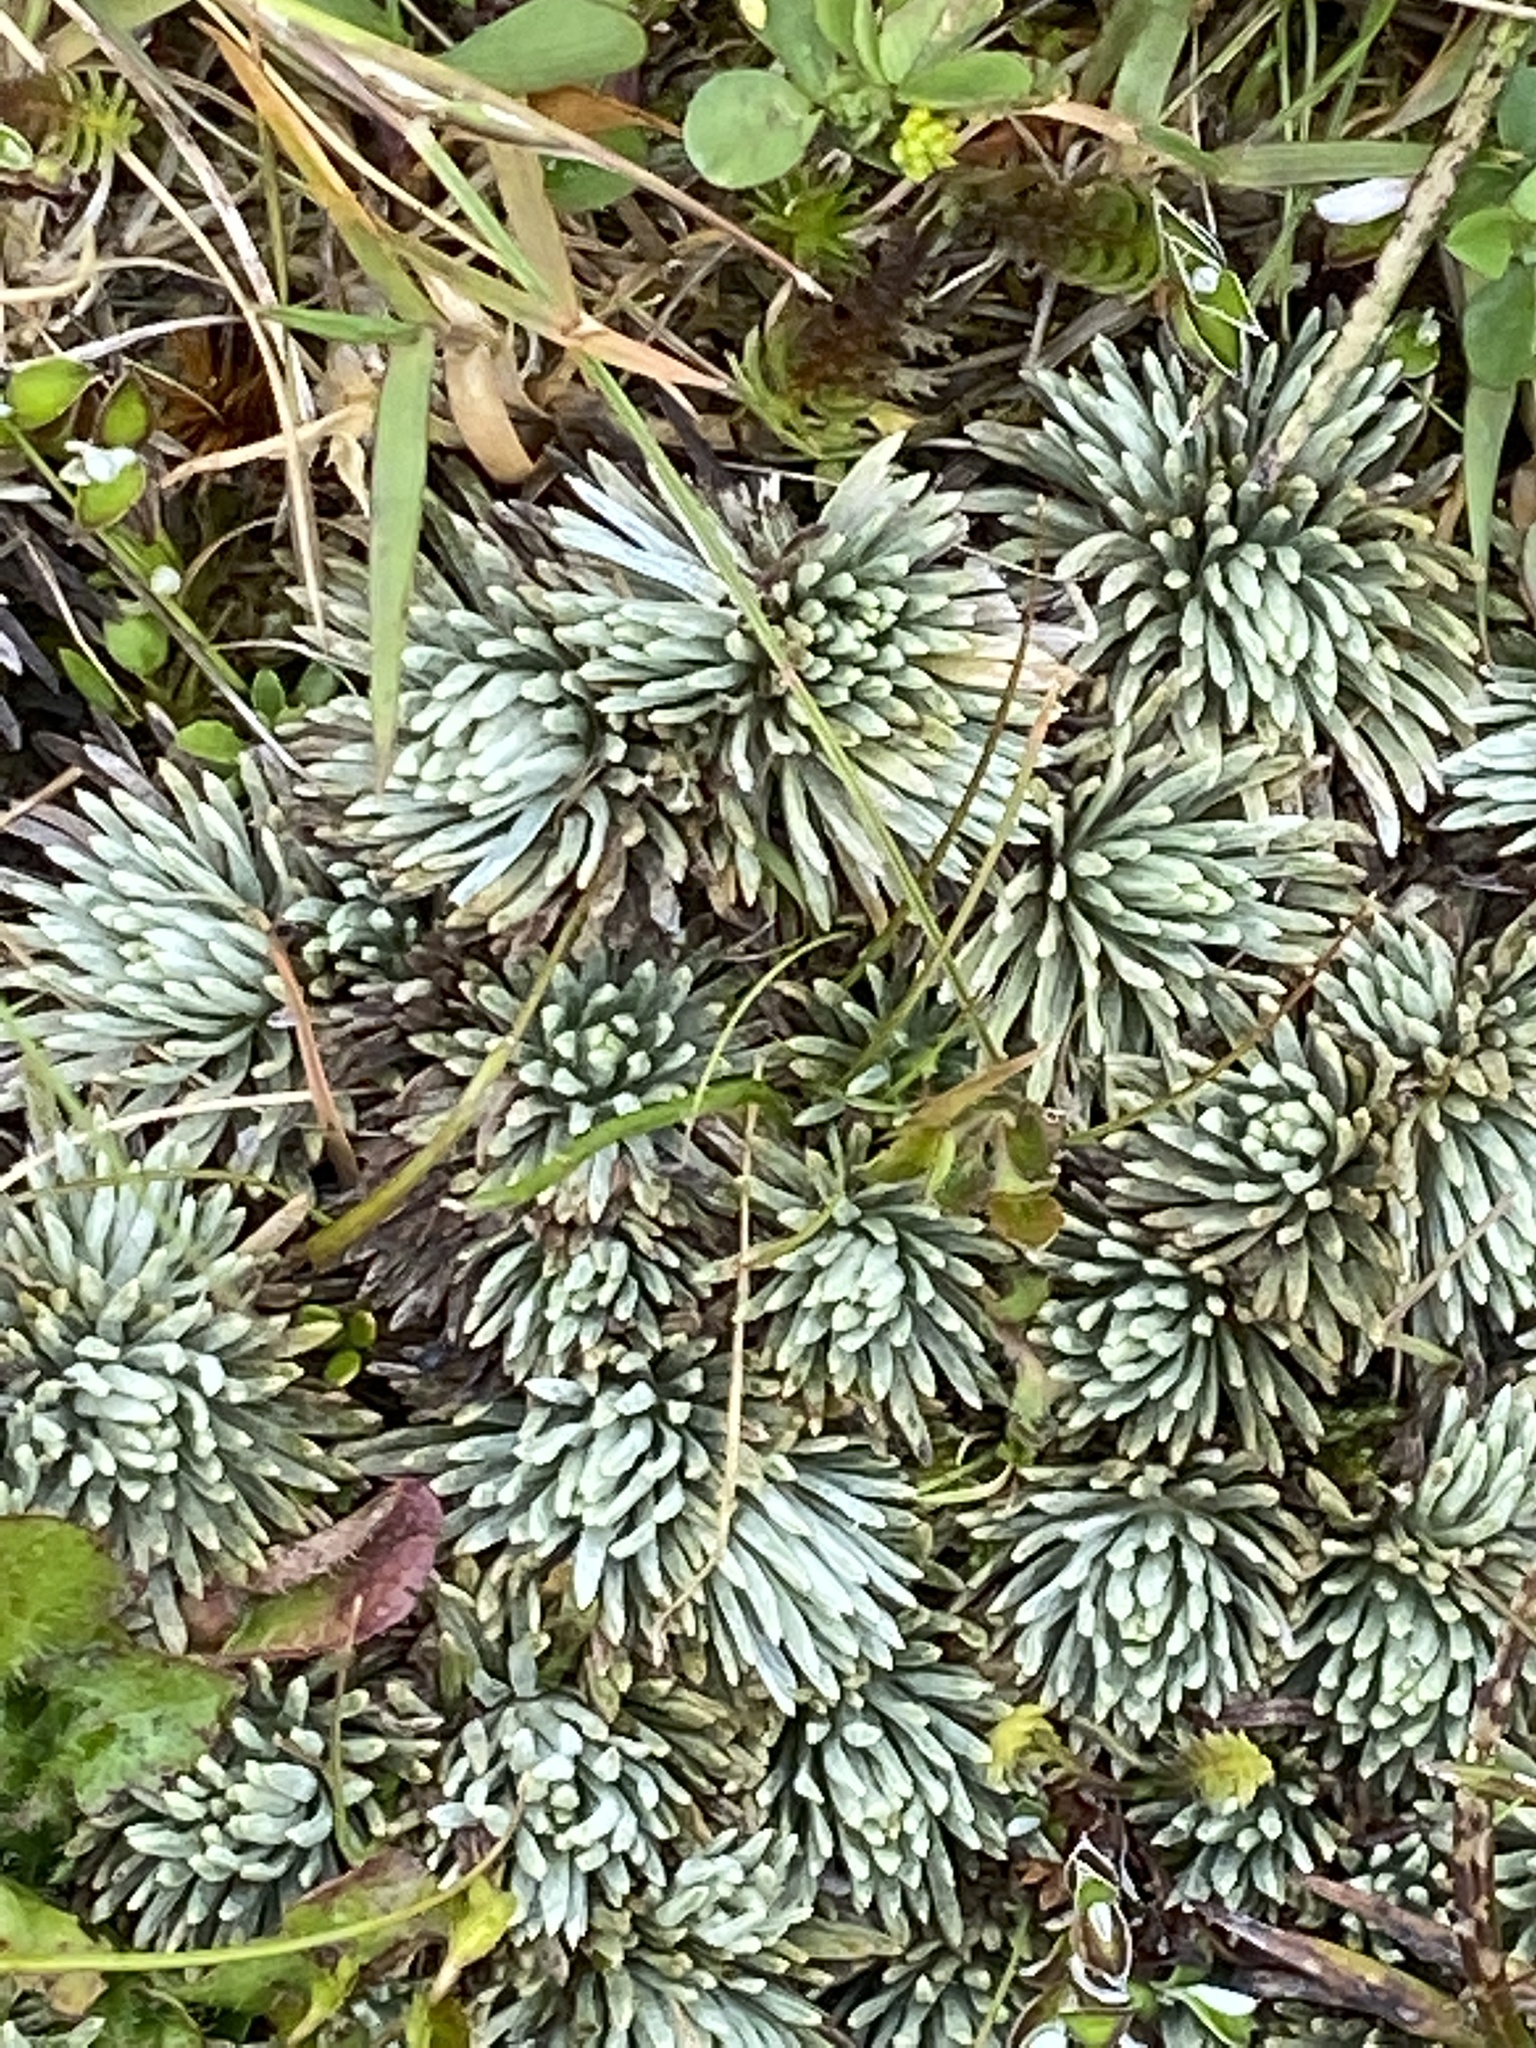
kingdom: Plantae
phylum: Tracheophyta
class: Magnoliopsida
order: Asterales
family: Asteraceae
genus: Celmisia
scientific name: Celmisia sessiliflora
